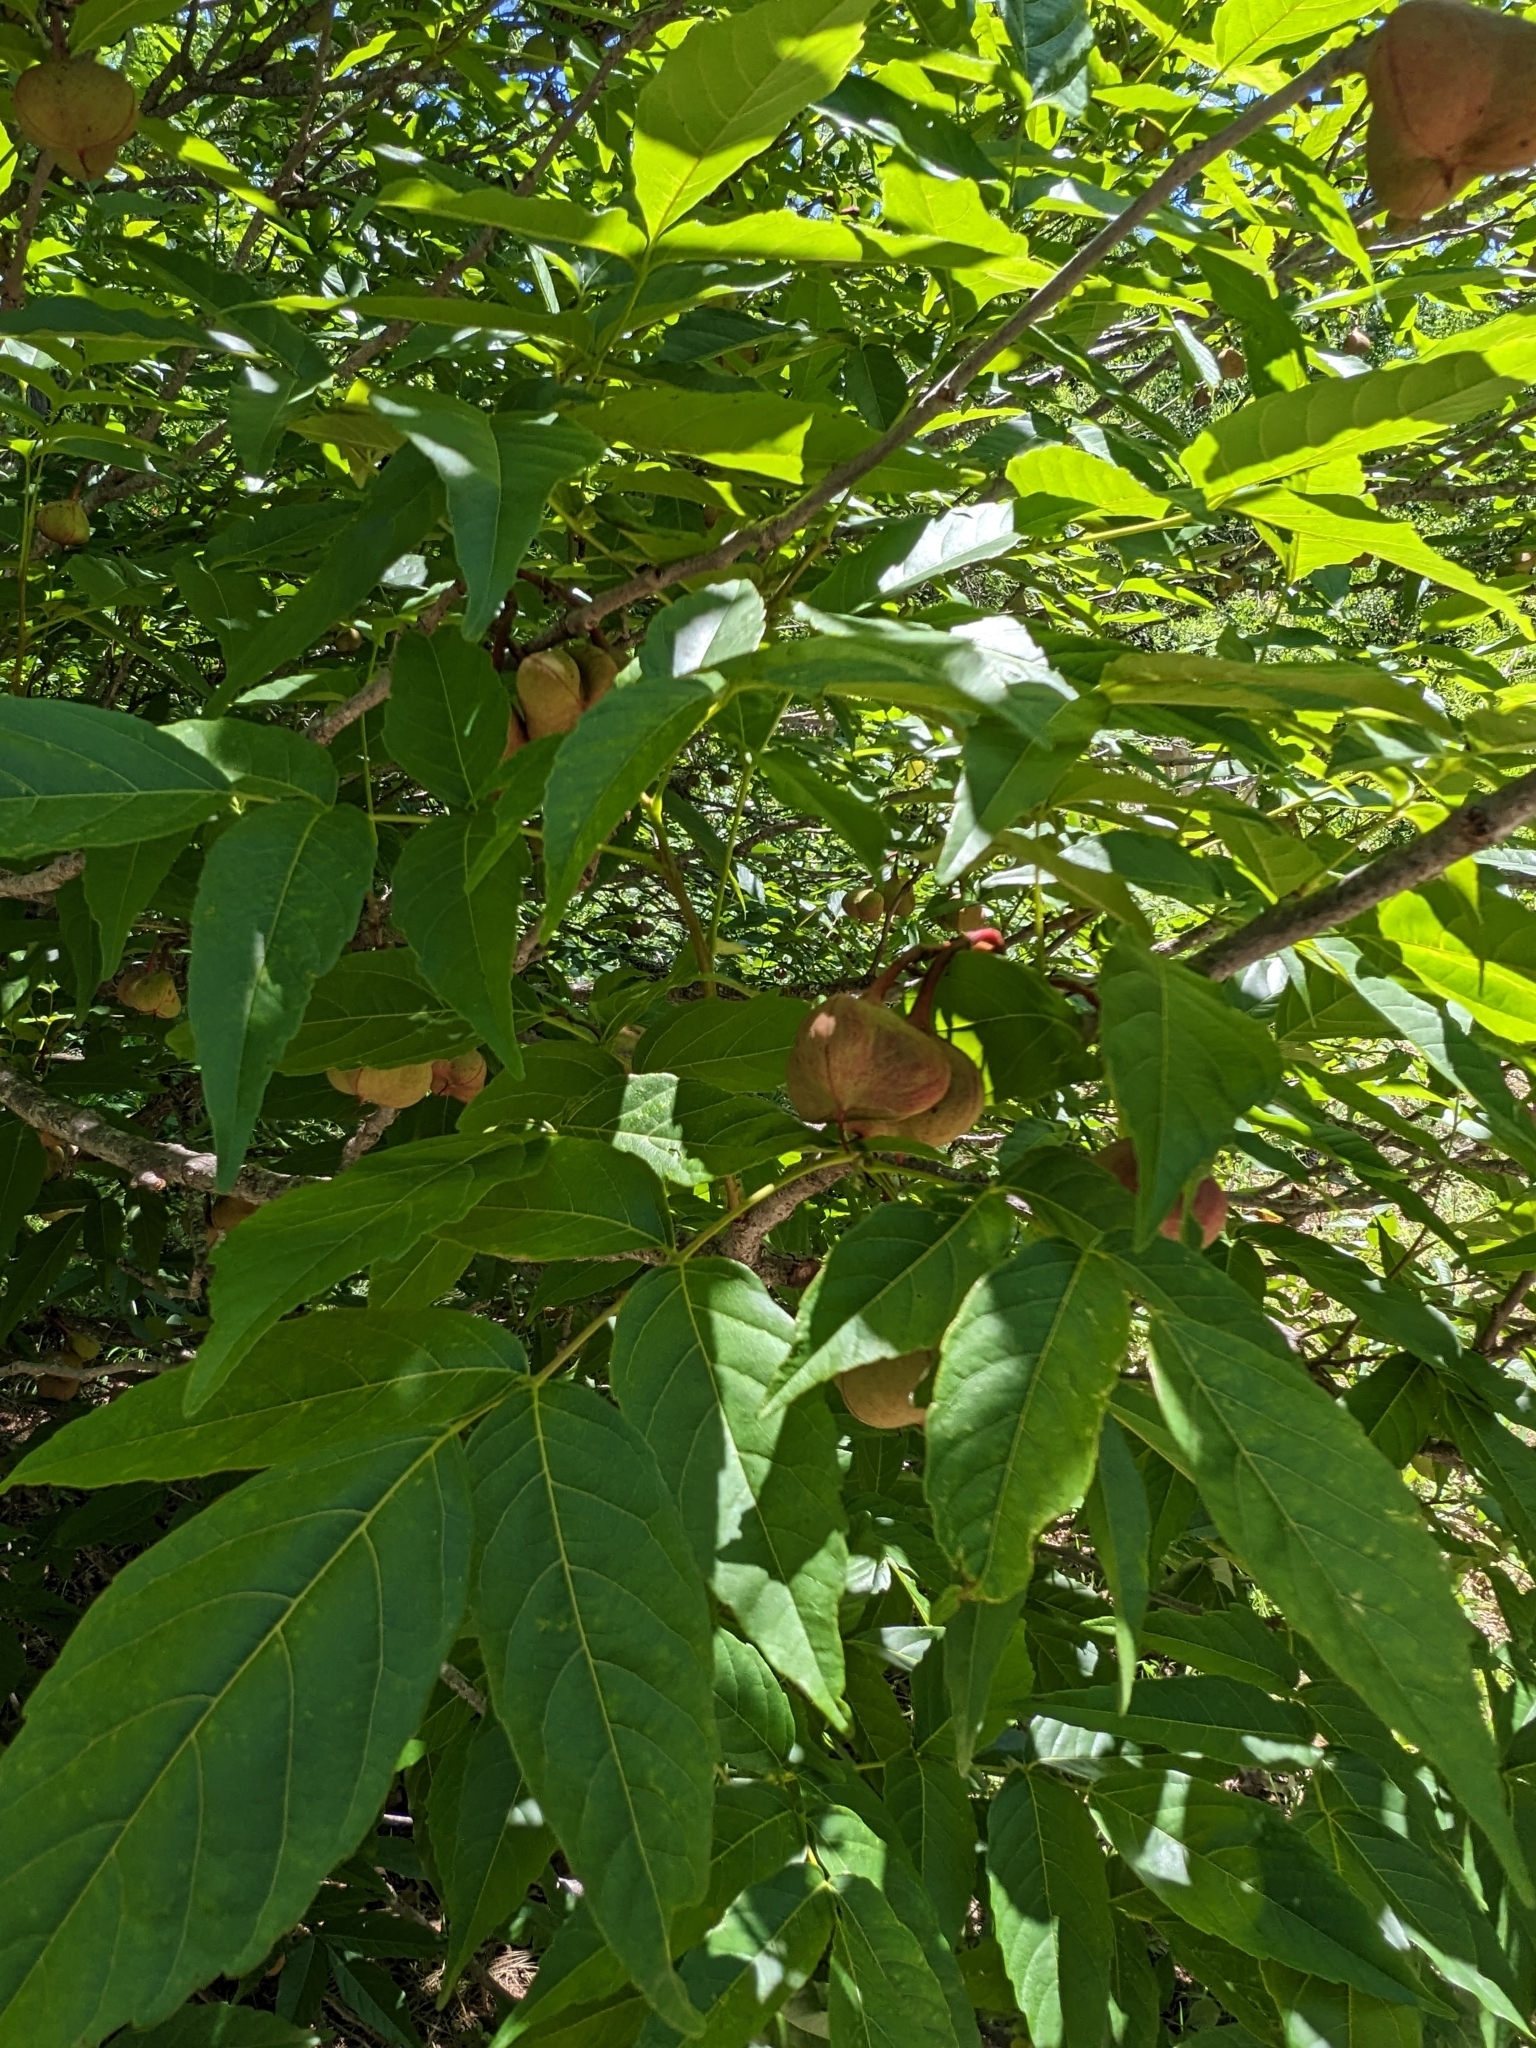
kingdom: Plantae
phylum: Tracheophyta
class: Magnoliopsida
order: Sapindales
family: Sapindaceae
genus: Ungnadia
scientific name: Ungnadia speciosa
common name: Texas-buckeye
